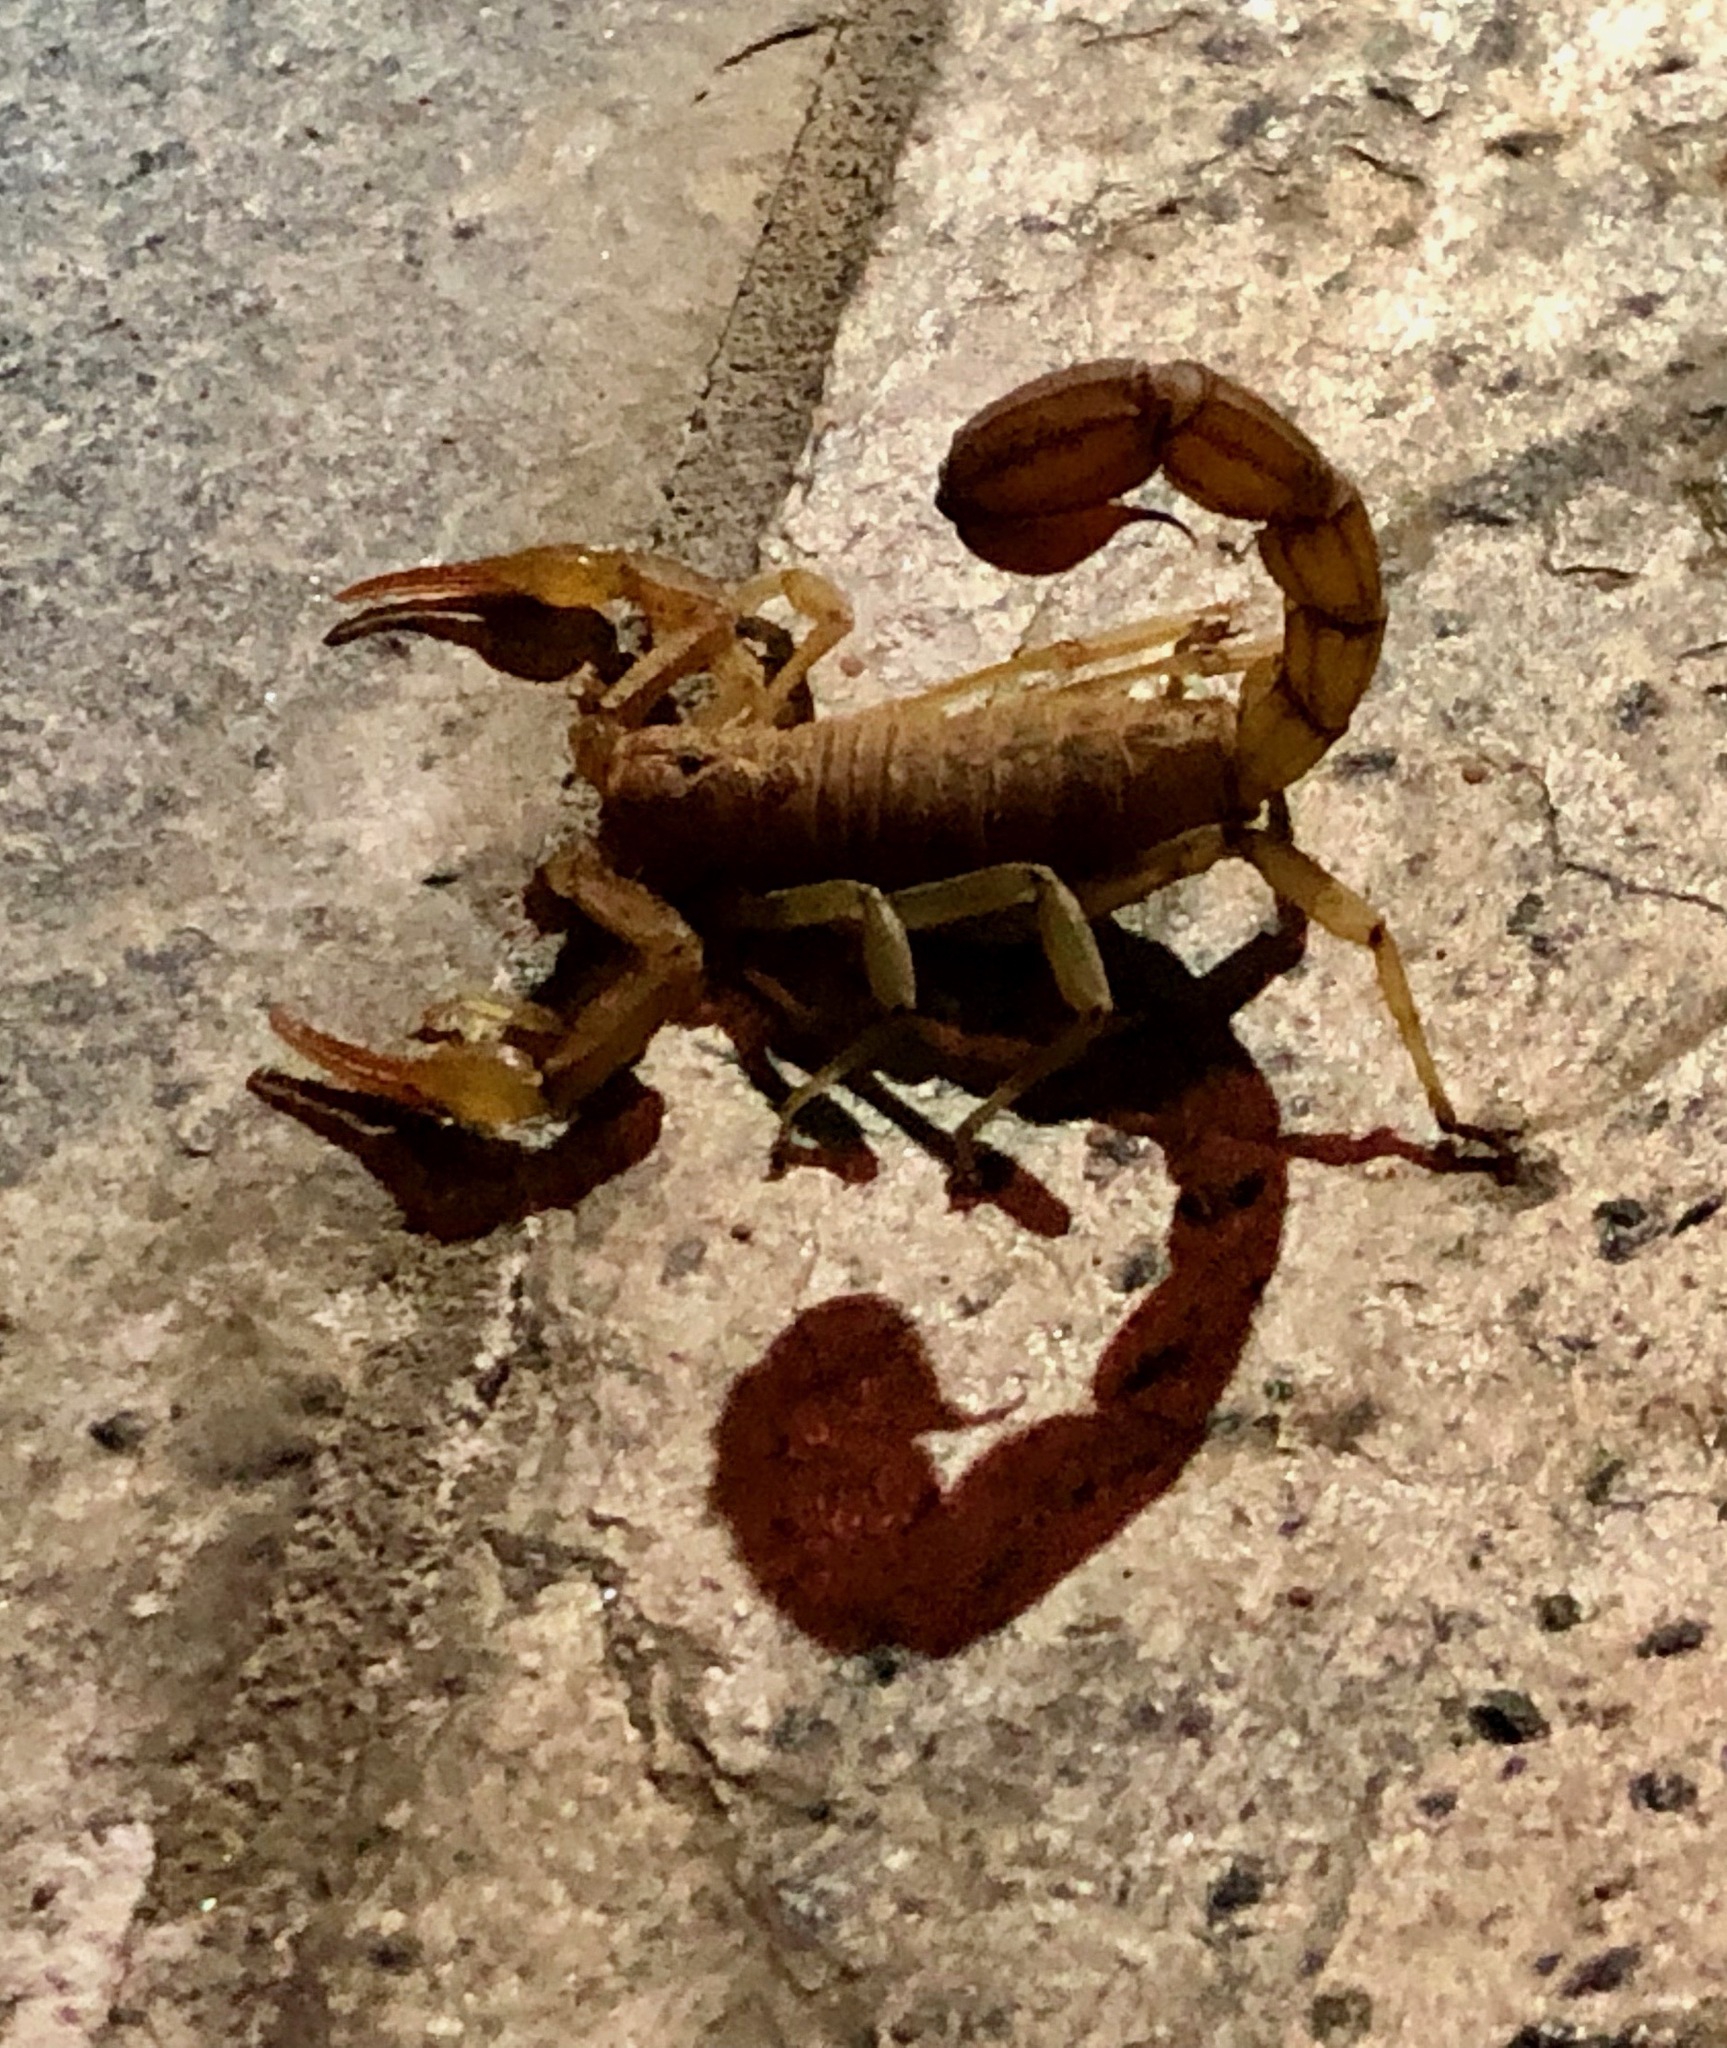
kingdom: Animalia
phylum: Arthropoda
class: Arachnida
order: Scorpiones
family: Vaejovidae
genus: Paravaejovis
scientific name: Paravaejovis puritanus
